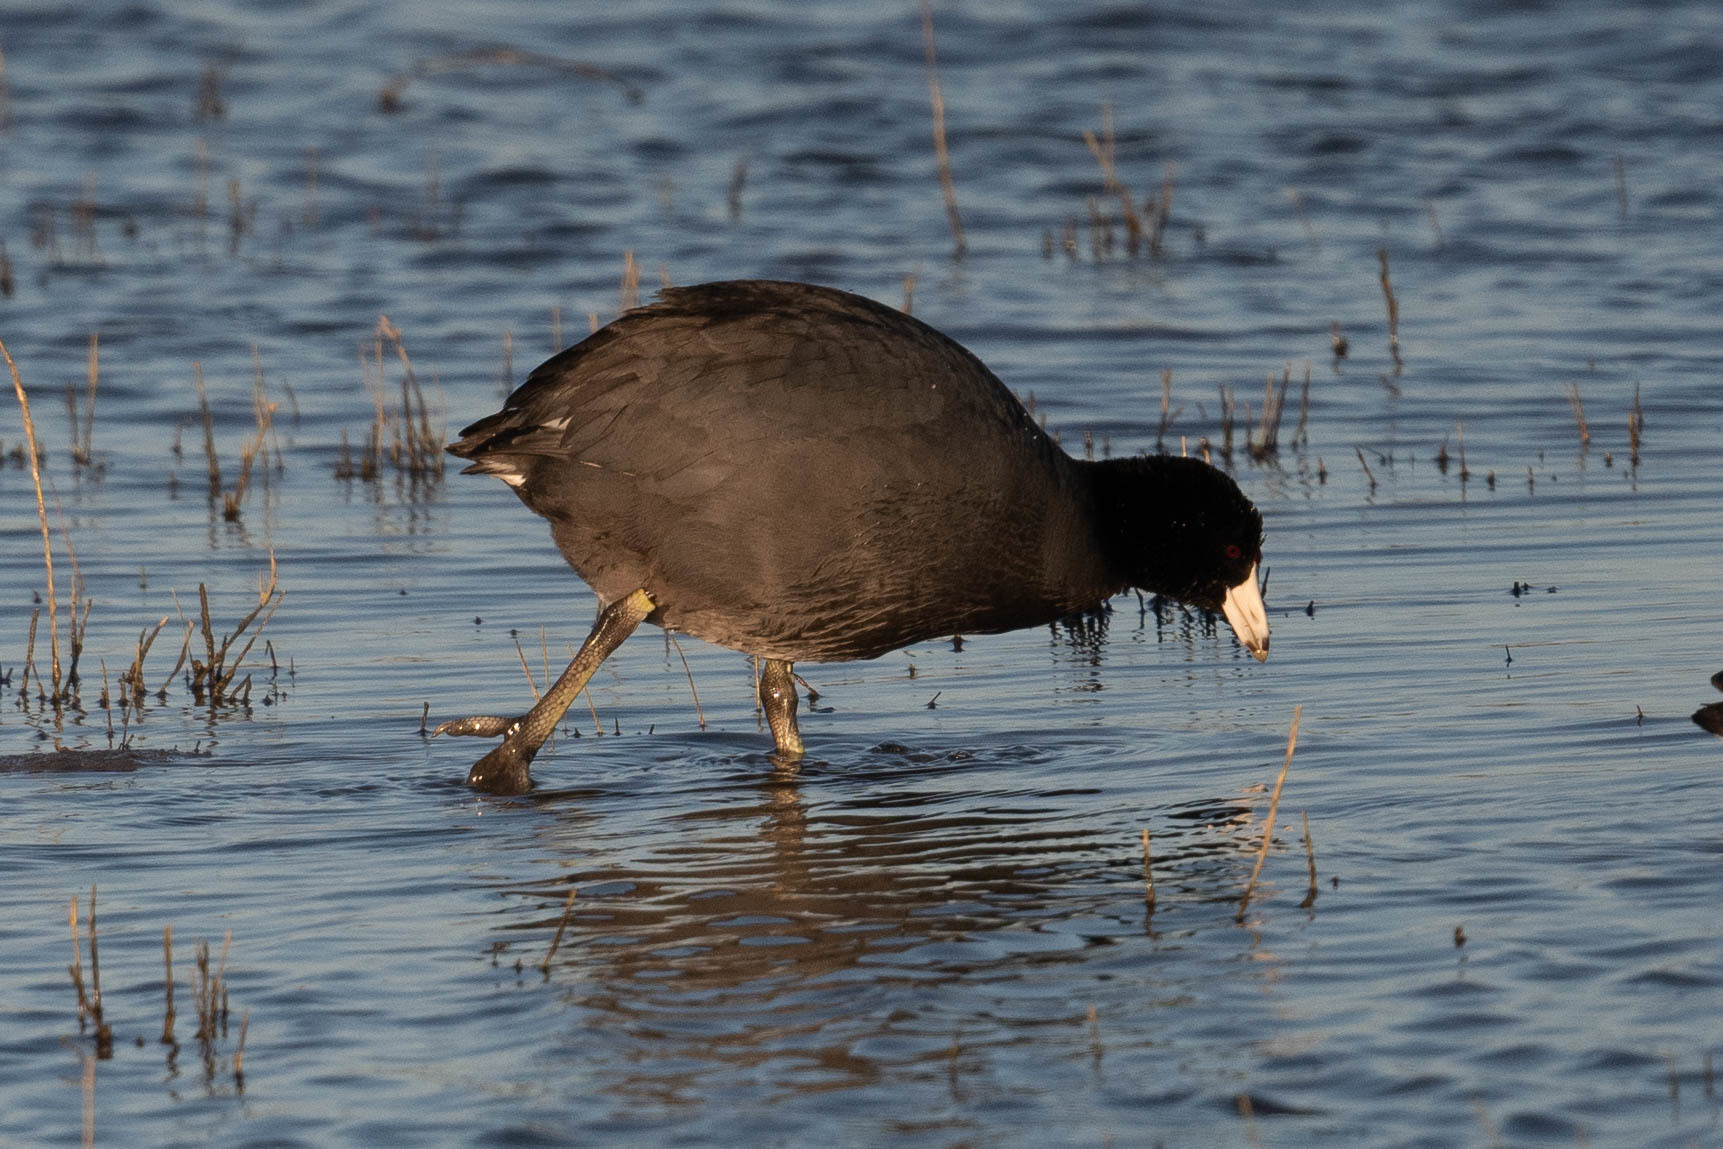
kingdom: Animalia
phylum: Chordata
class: Aves
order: Gruiformes
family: Rallidae
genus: Fulica
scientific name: Fulica americana
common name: American coot
